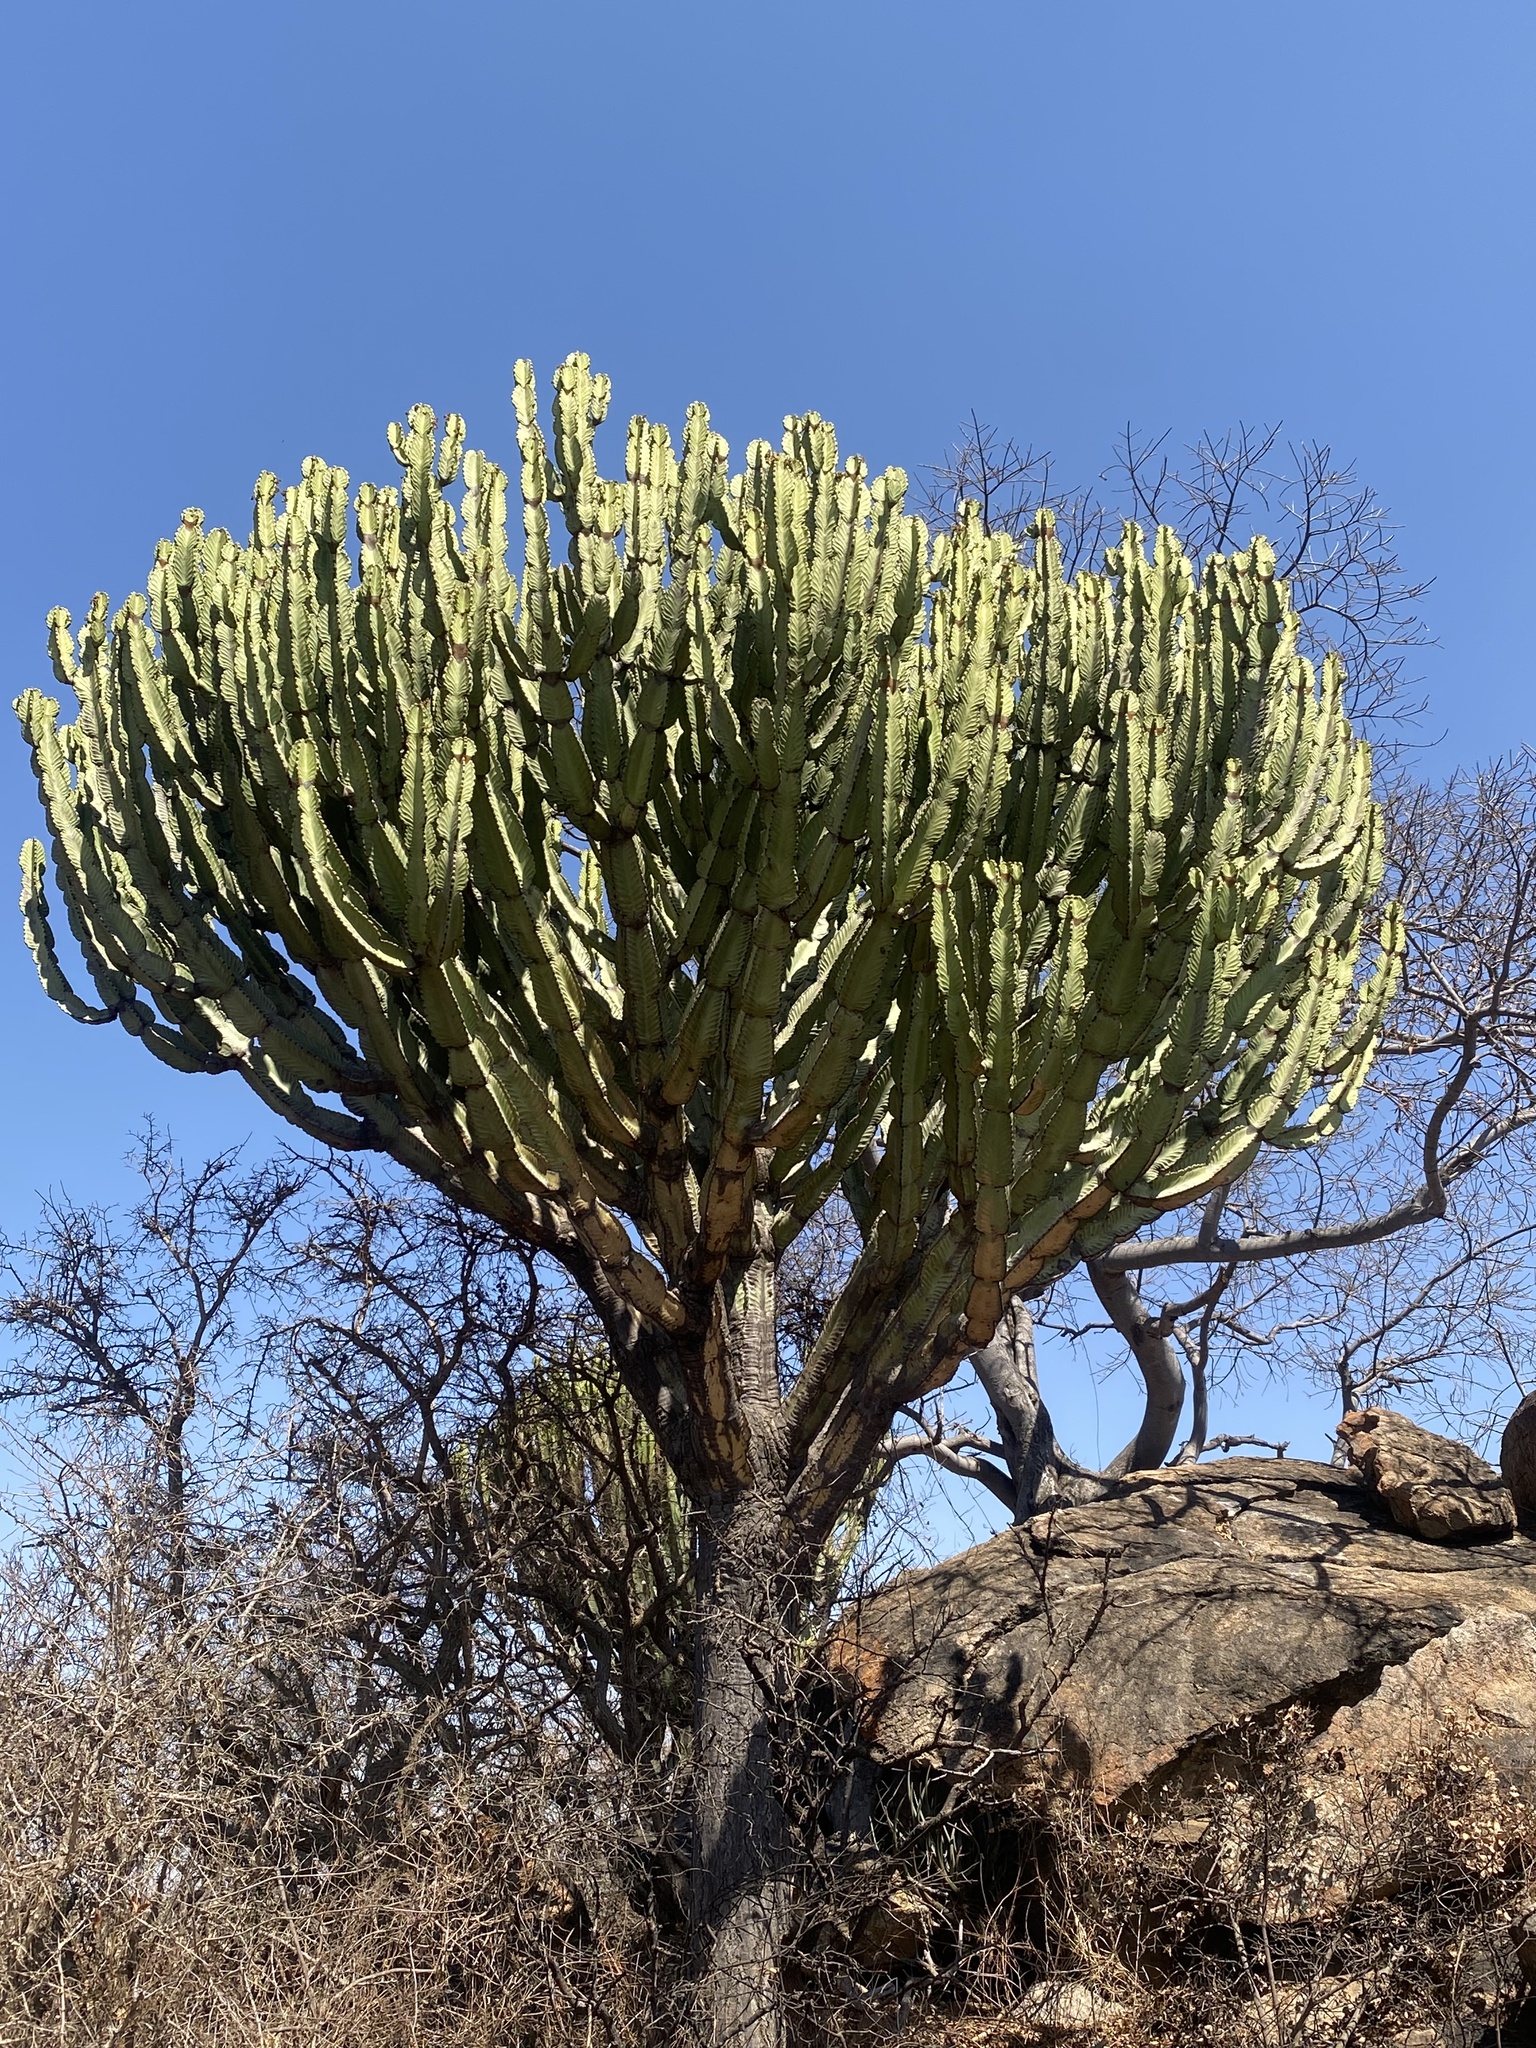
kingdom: Plantae
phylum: Tracheophyta
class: Magnoliopsida
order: Malpighiales
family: Euphorbiaceae
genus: Euphorbia
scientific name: Euphorbia ingens
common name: Cactus spurge
